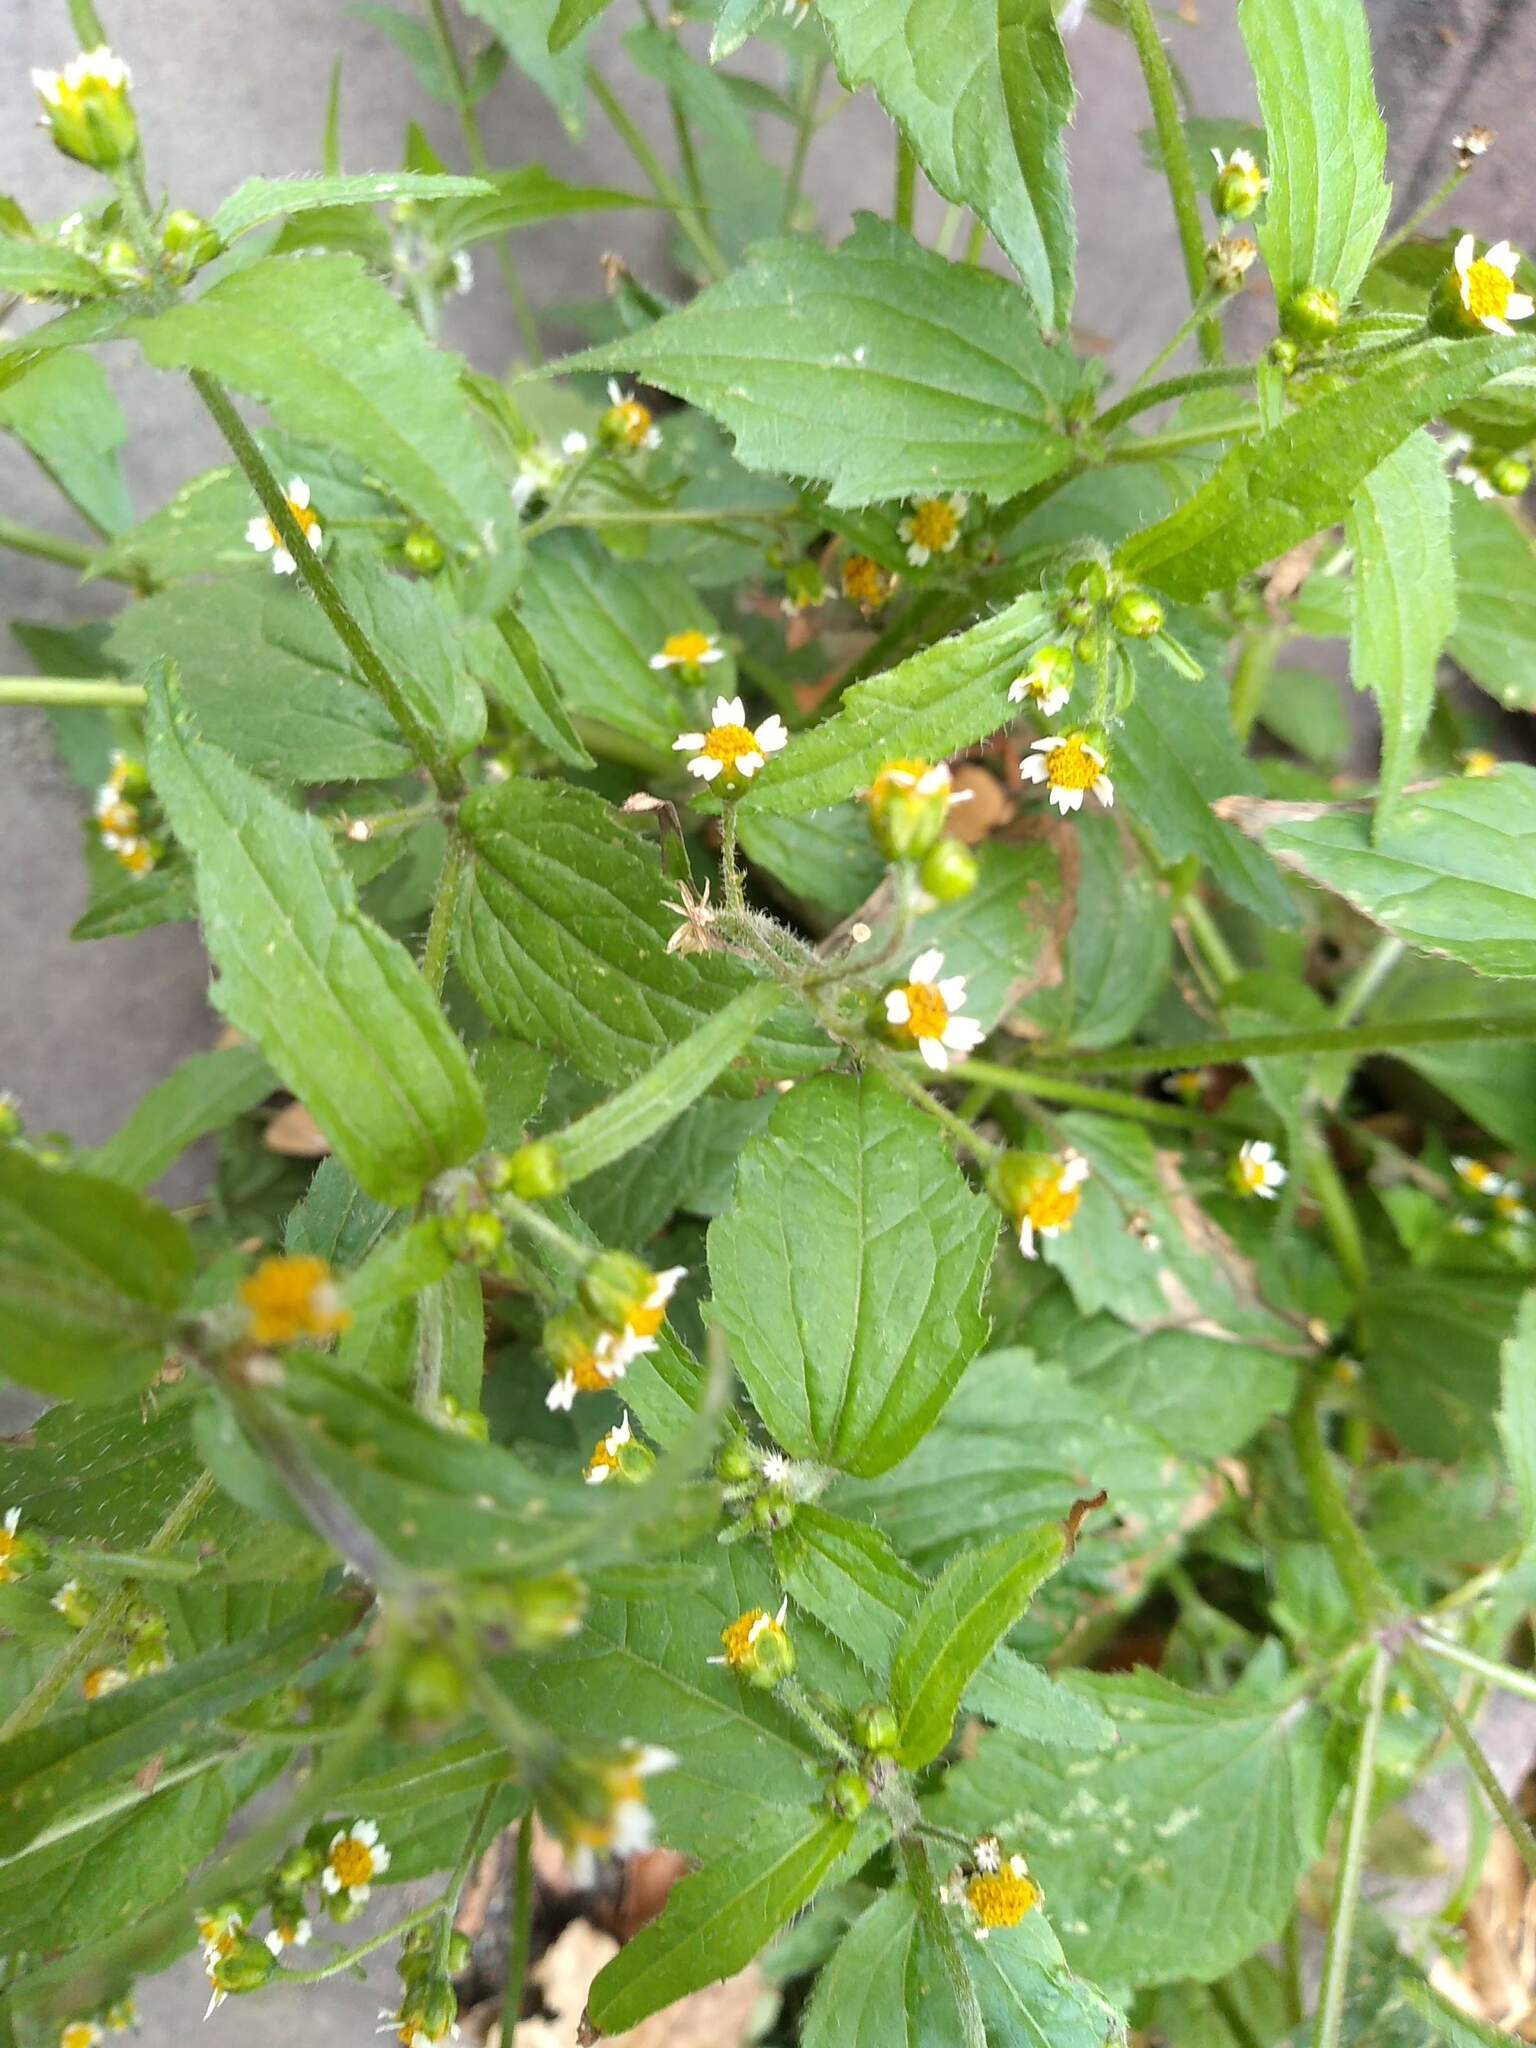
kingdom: Plantae
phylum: Tracheophyta
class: Magnoliopsida
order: Asterales
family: Asteraceae
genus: Galinsoga
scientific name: Galinsoga quadriradiata
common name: Shaggy soldier
